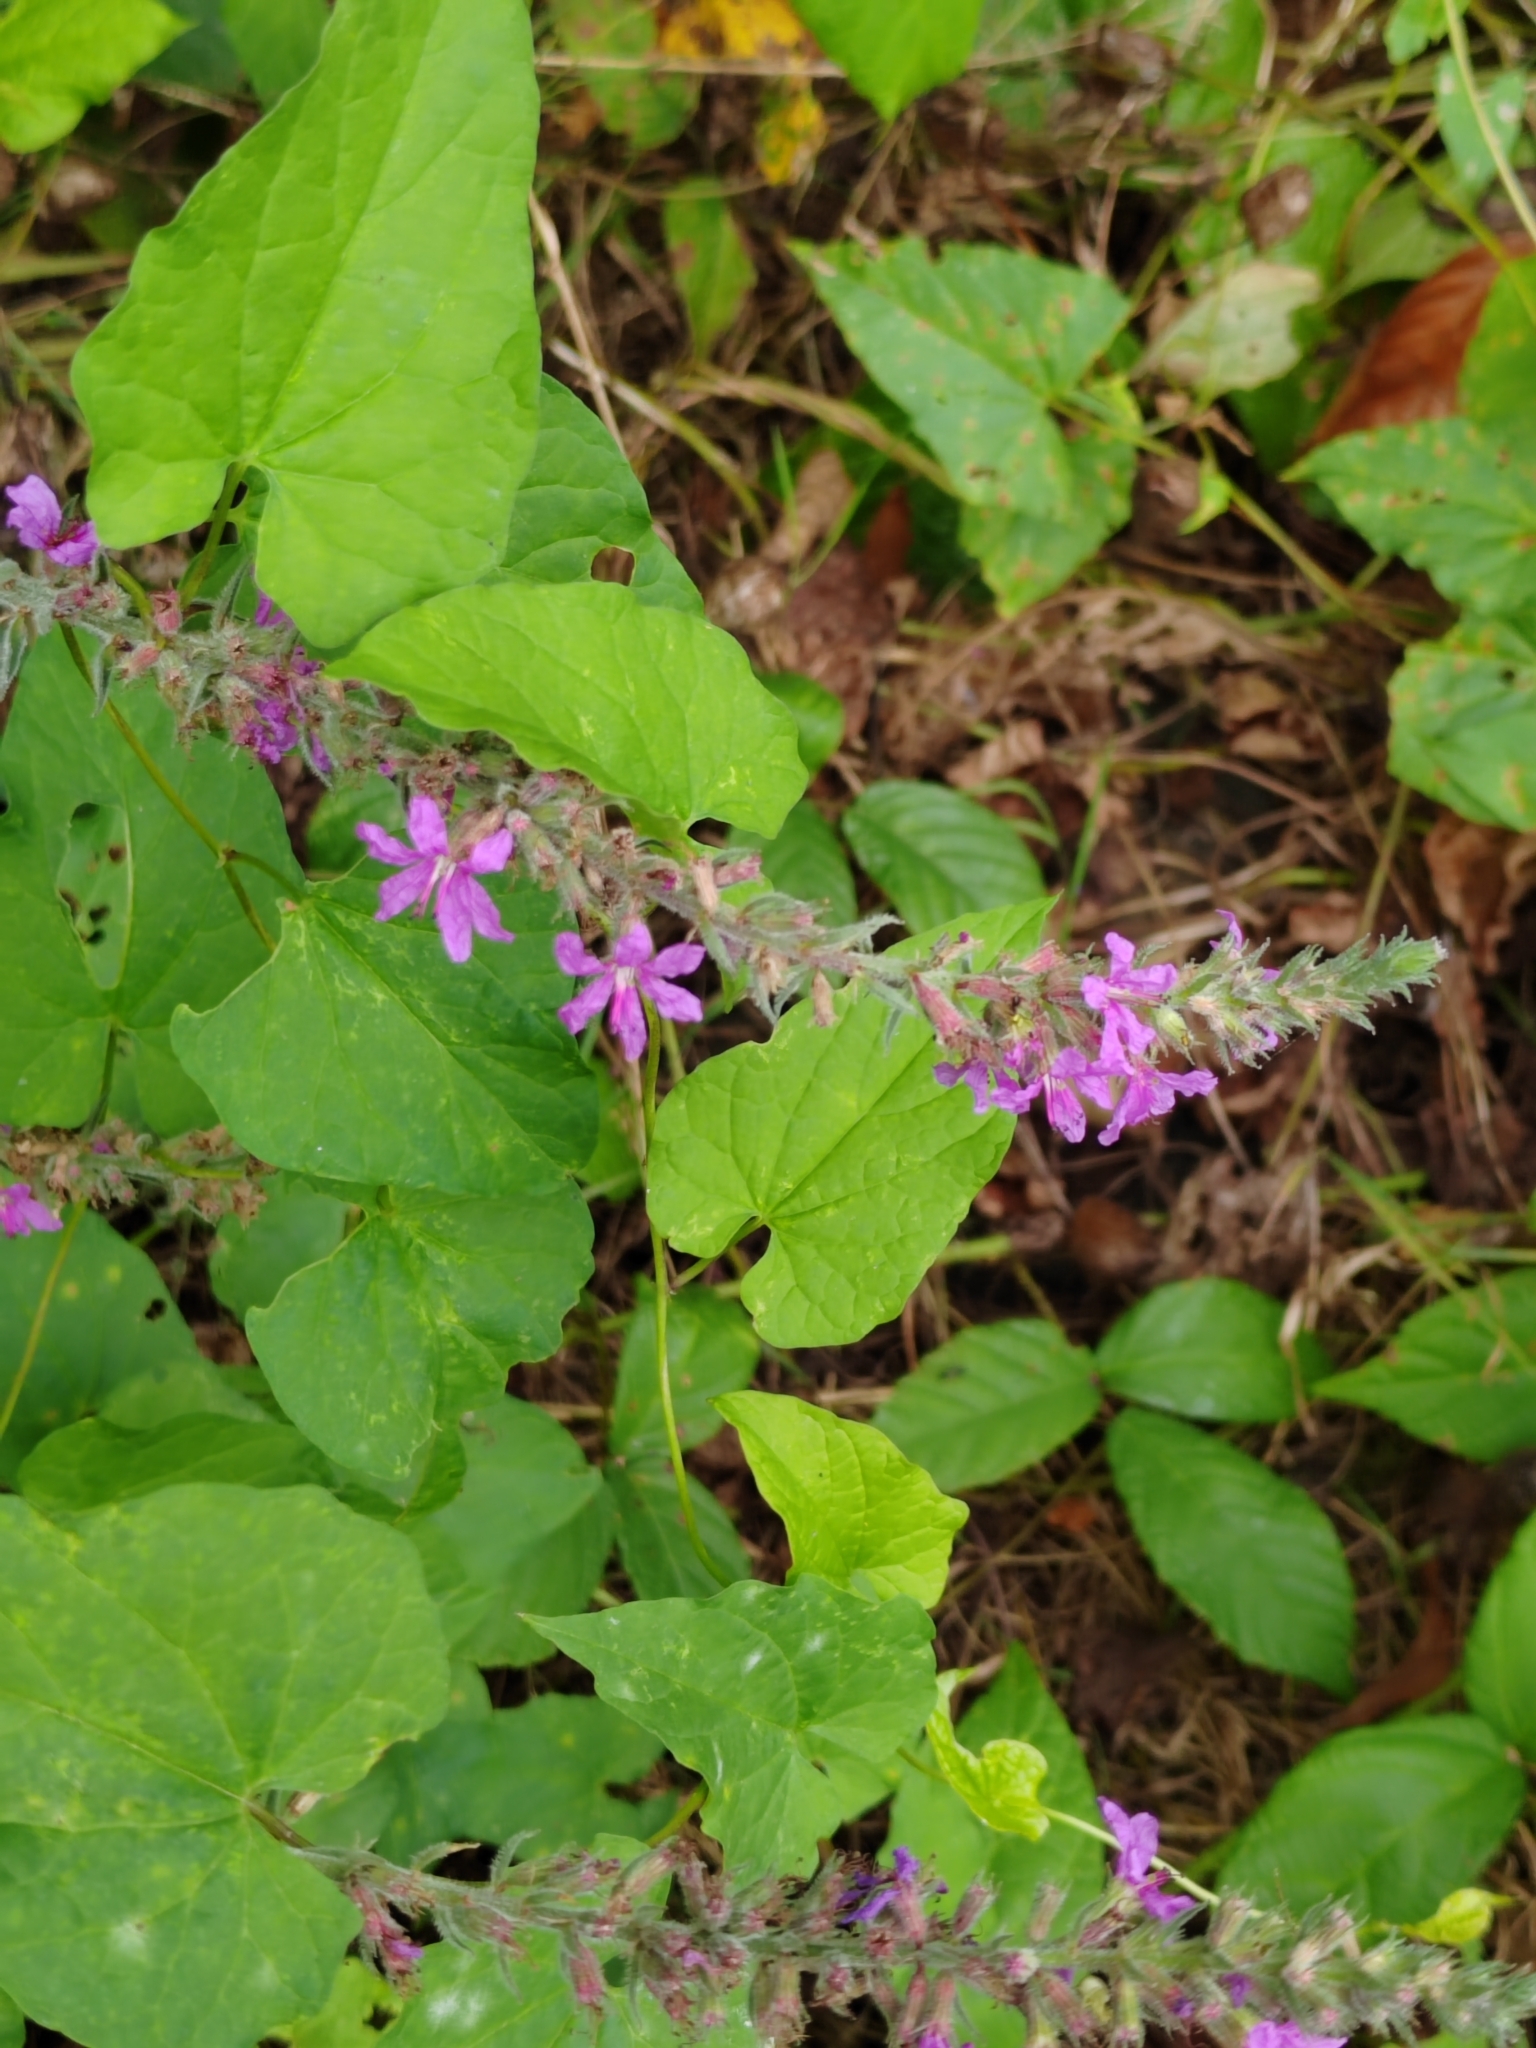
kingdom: Plantae
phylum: Tracheophyta
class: Magnoliopsida
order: Myrtales
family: Lythraceae
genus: Lythrum
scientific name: Lythrum salicaria
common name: Purple loosestrife
